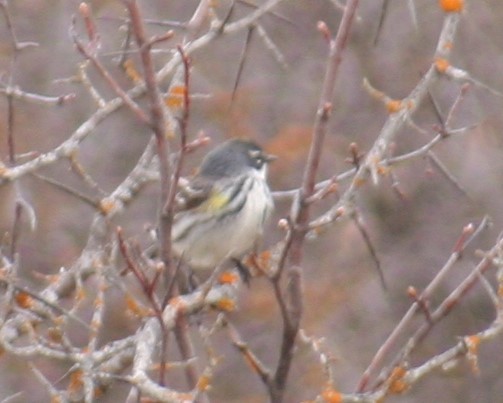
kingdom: Animalia
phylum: Chordata
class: Aves
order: Passeriformes
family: Parulidae
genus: Setophaga
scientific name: Setophaga coronata
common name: Myrtle warbler
